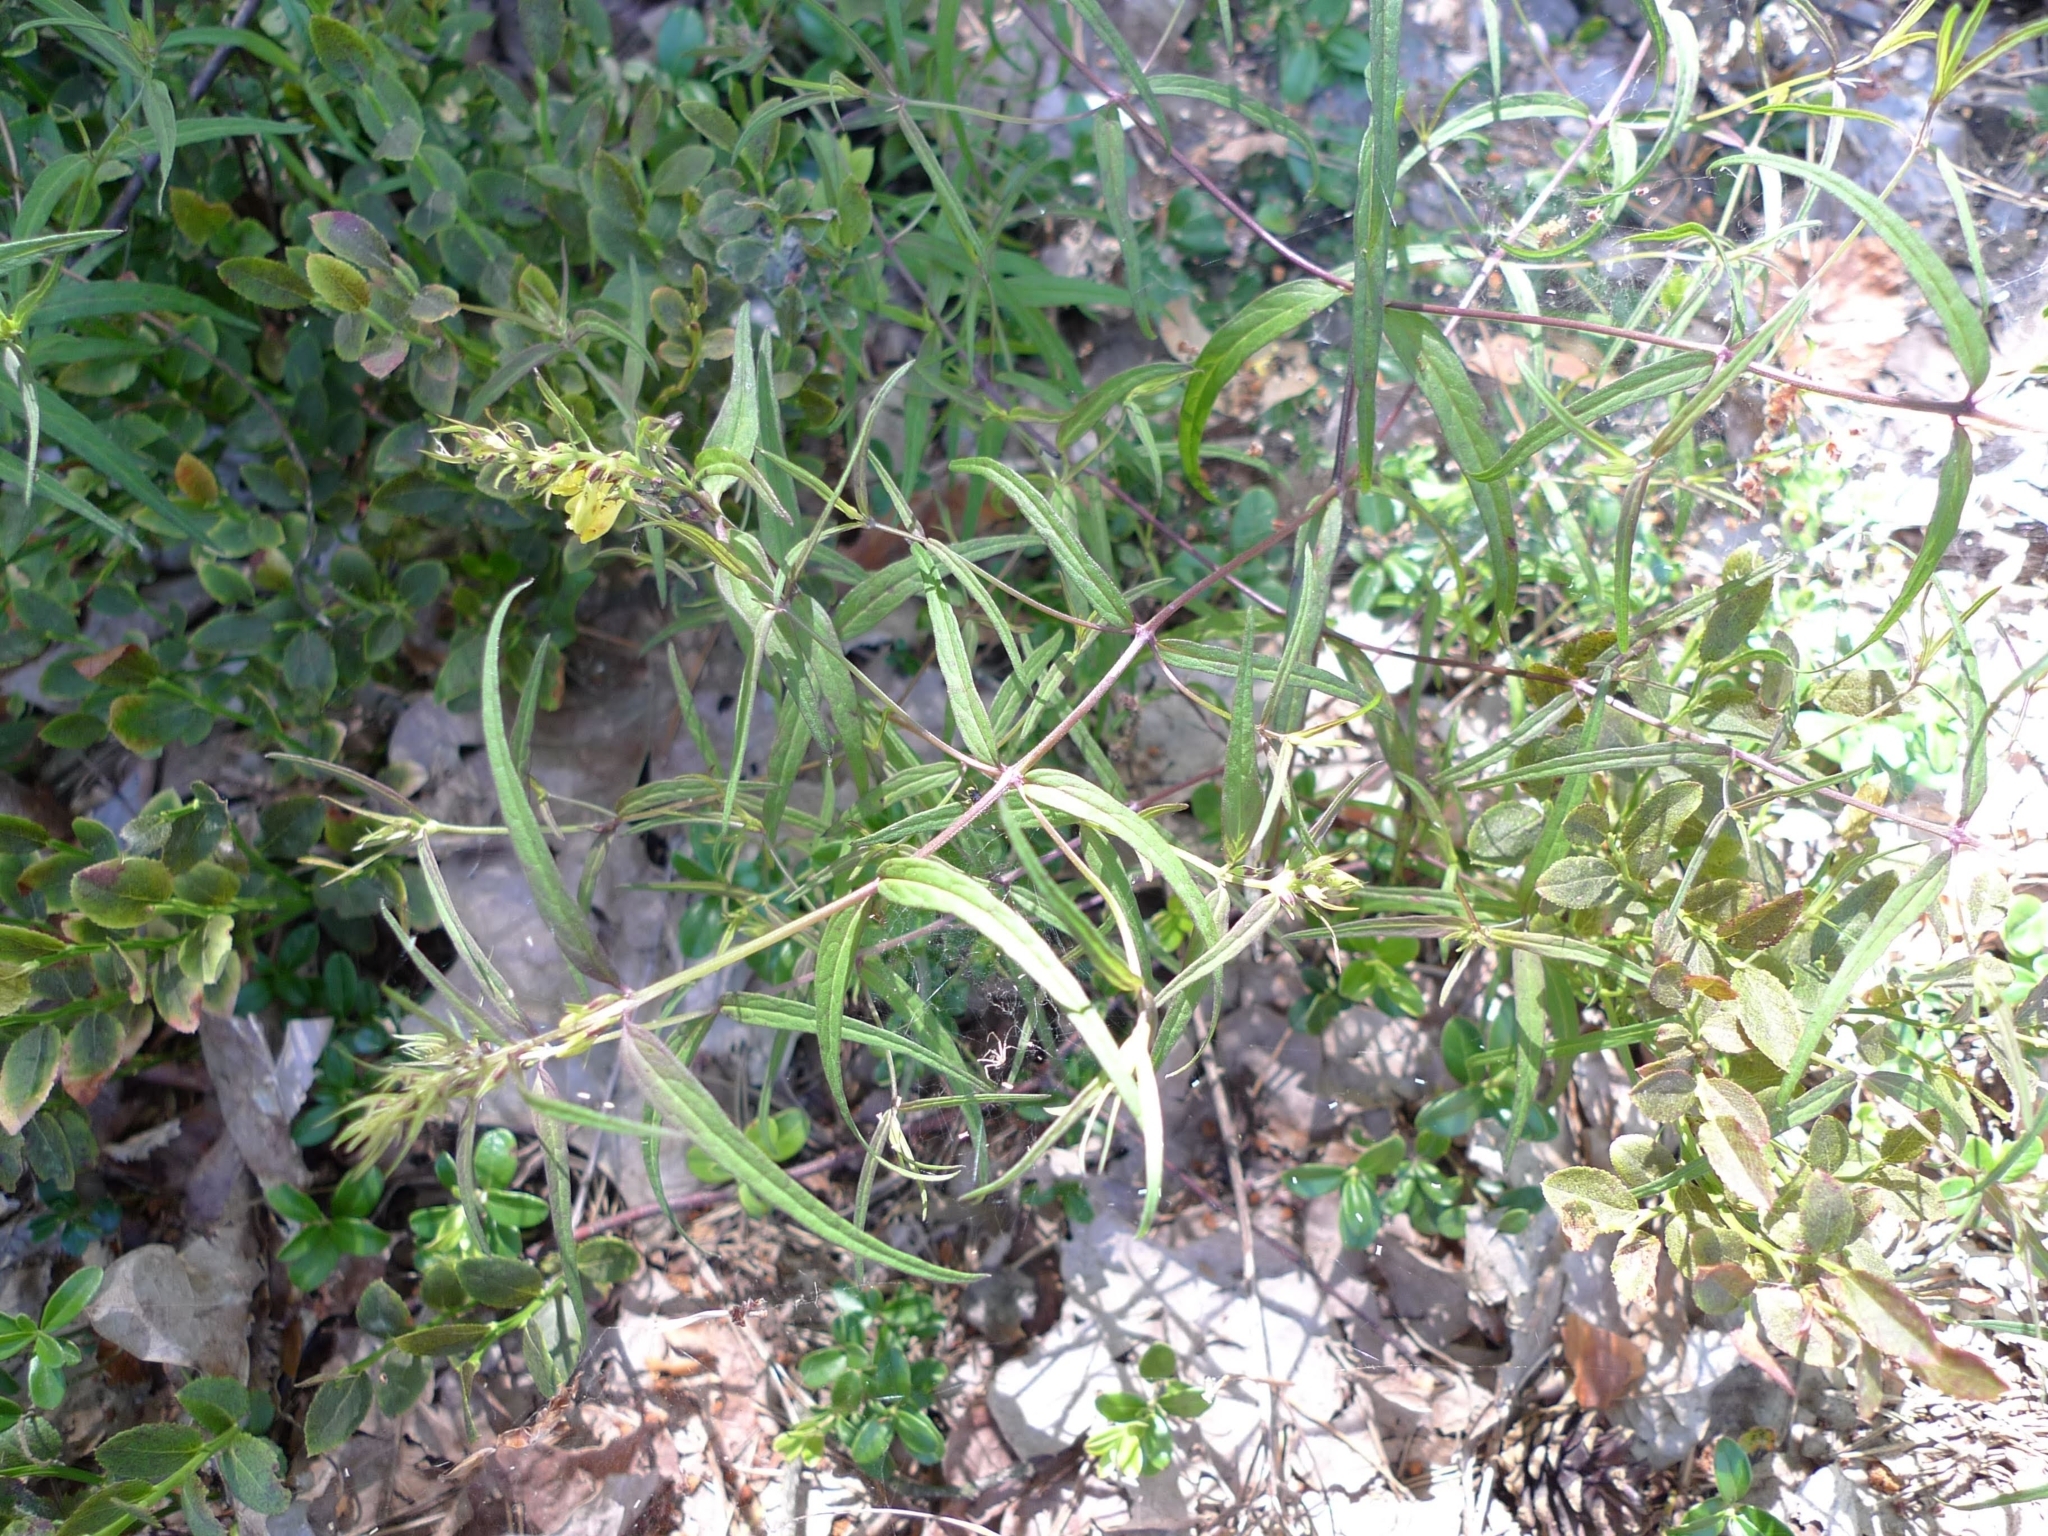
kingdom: Plantae
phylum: Tracheophyta
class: Magnoliopsida
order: Lamiales
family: Orobanchaceae
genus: Melampyrum
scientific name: Melampyrum pratense
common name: Common cow-wheat
